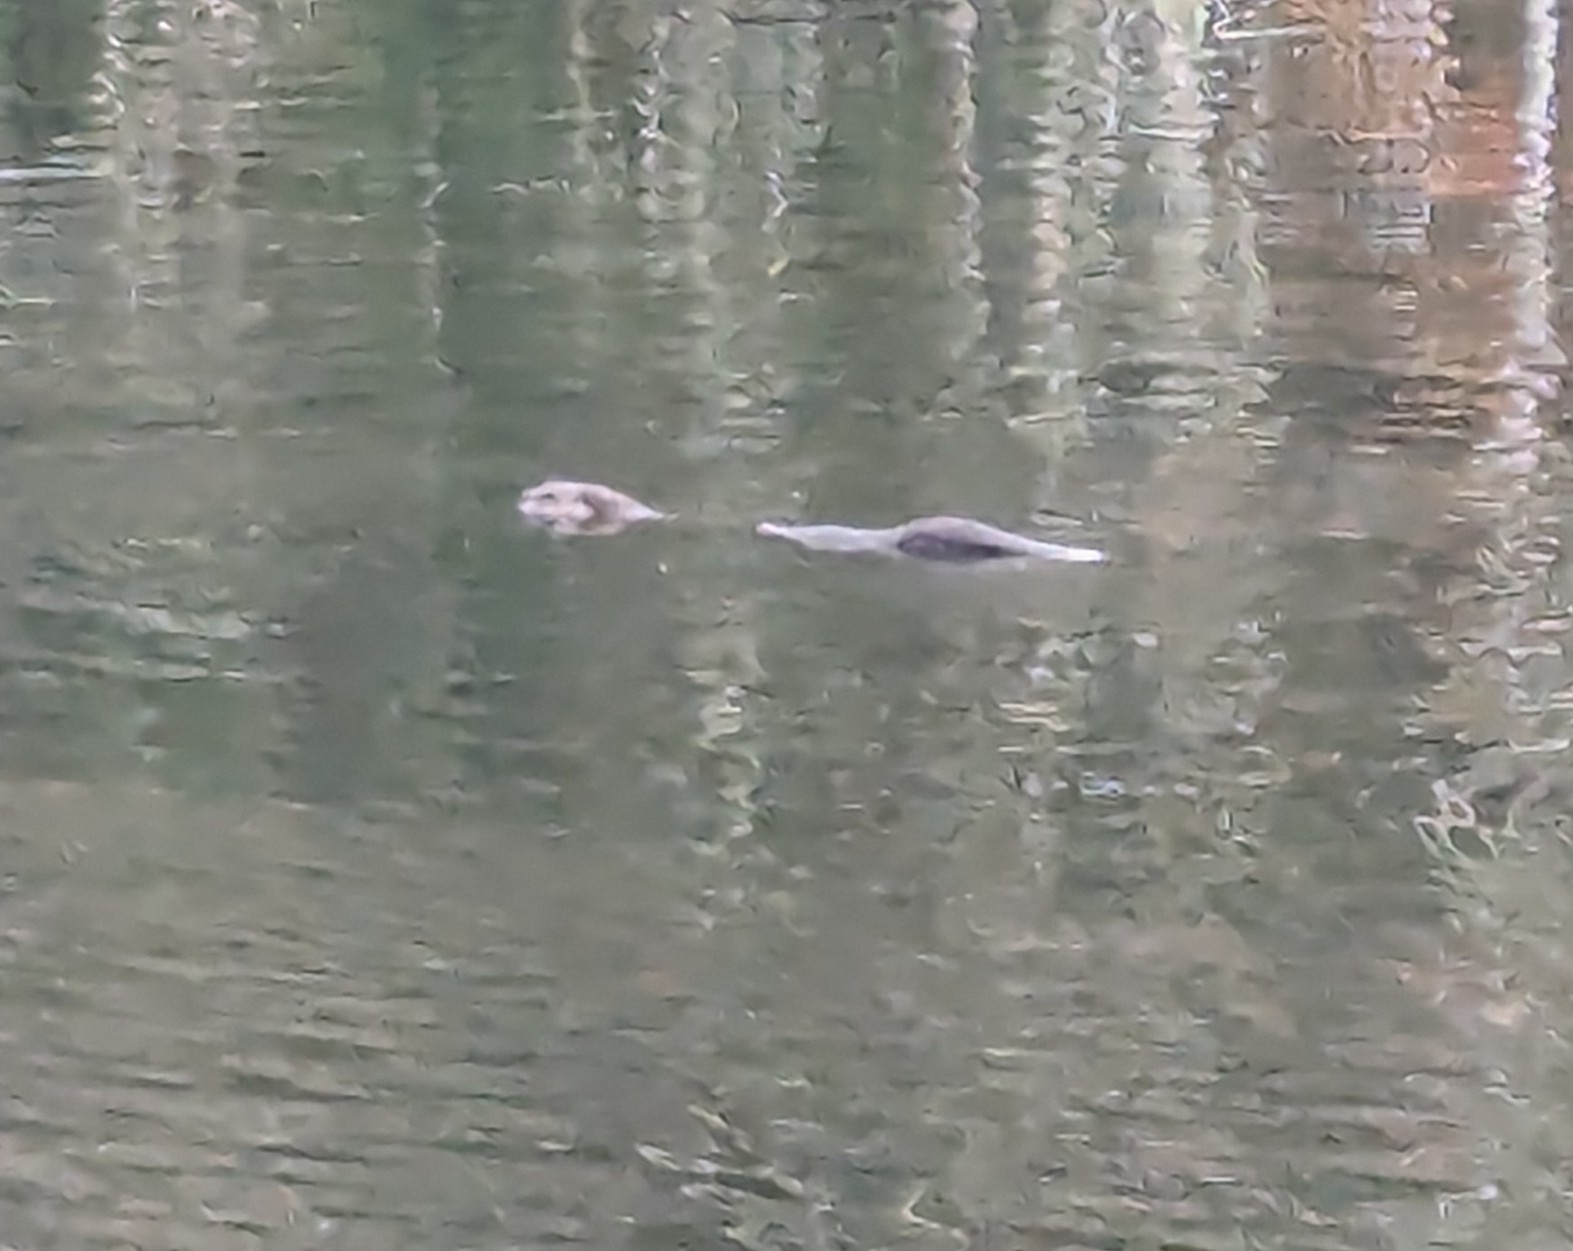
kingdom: Animalia
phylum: Chordata
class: Mammalia
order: Carnivora
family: Mustelidae
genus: Lontra
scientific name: Lontra canadensis
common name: North american river otter
